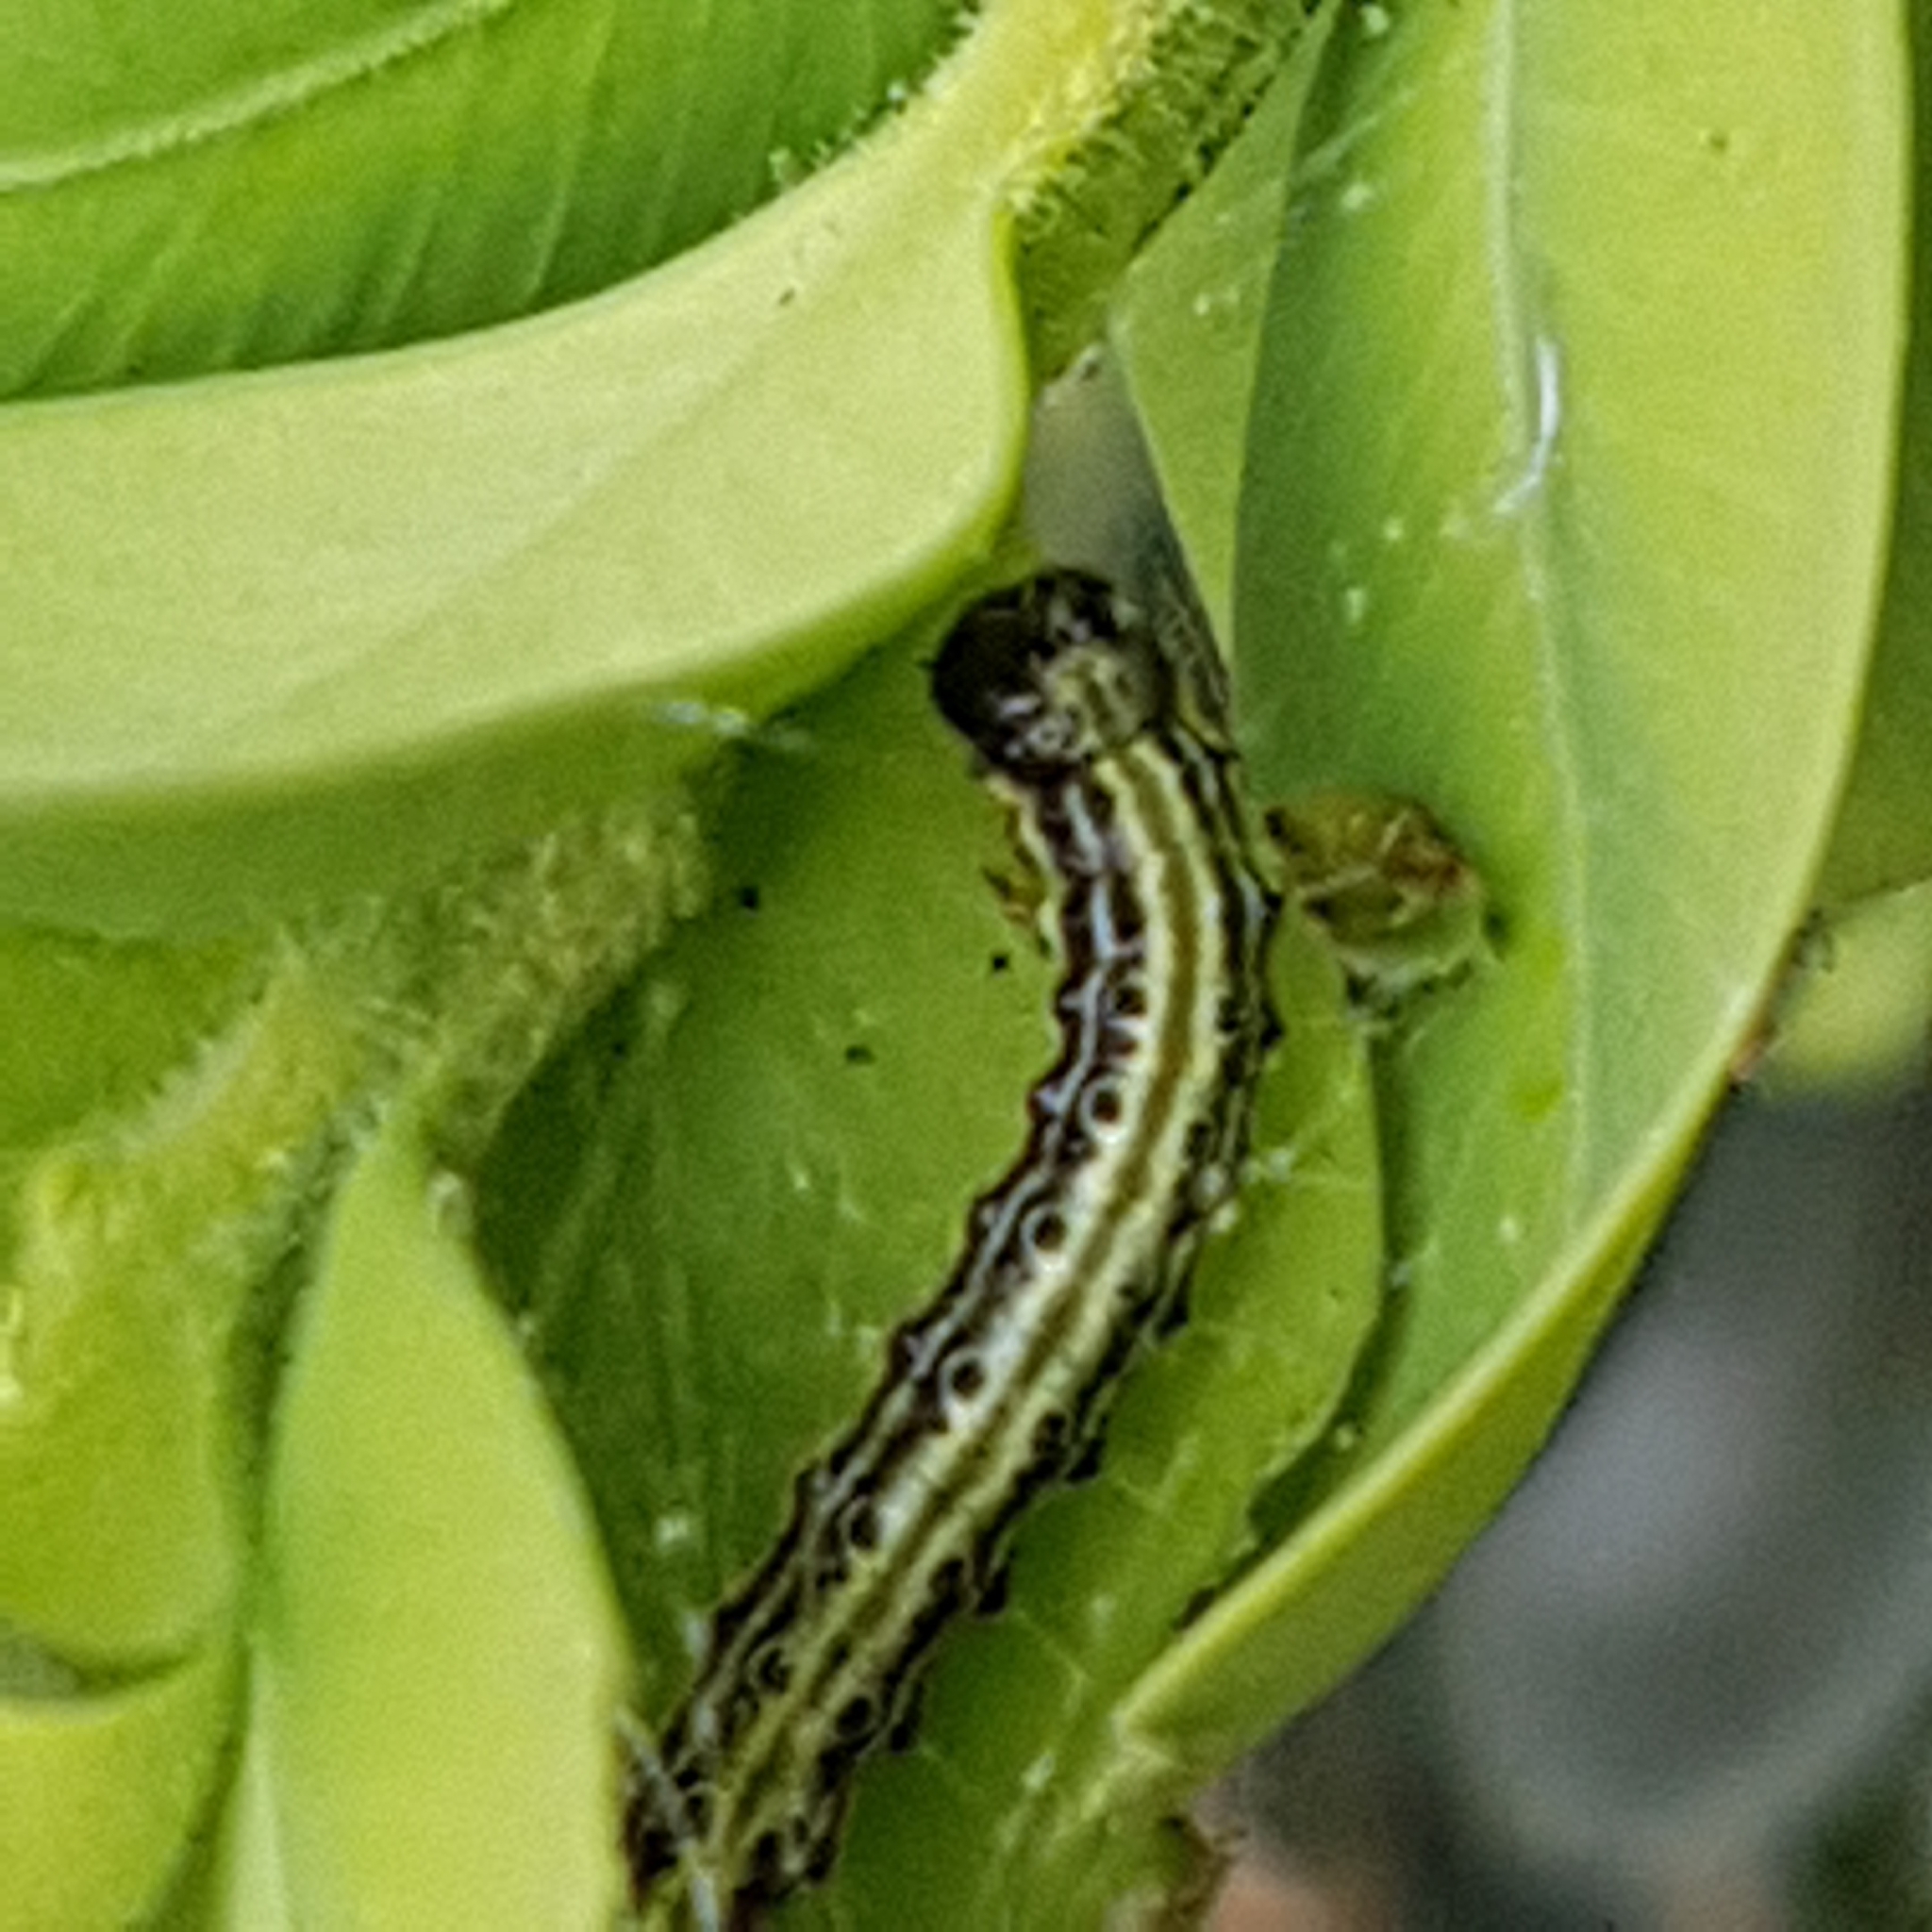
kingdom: Animalia
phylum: Arthropoda
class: Insecta
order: Lepidoptera
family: Crambidae
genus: Cydalima
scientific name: Cydalima perspectalis
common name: Box tree moth
